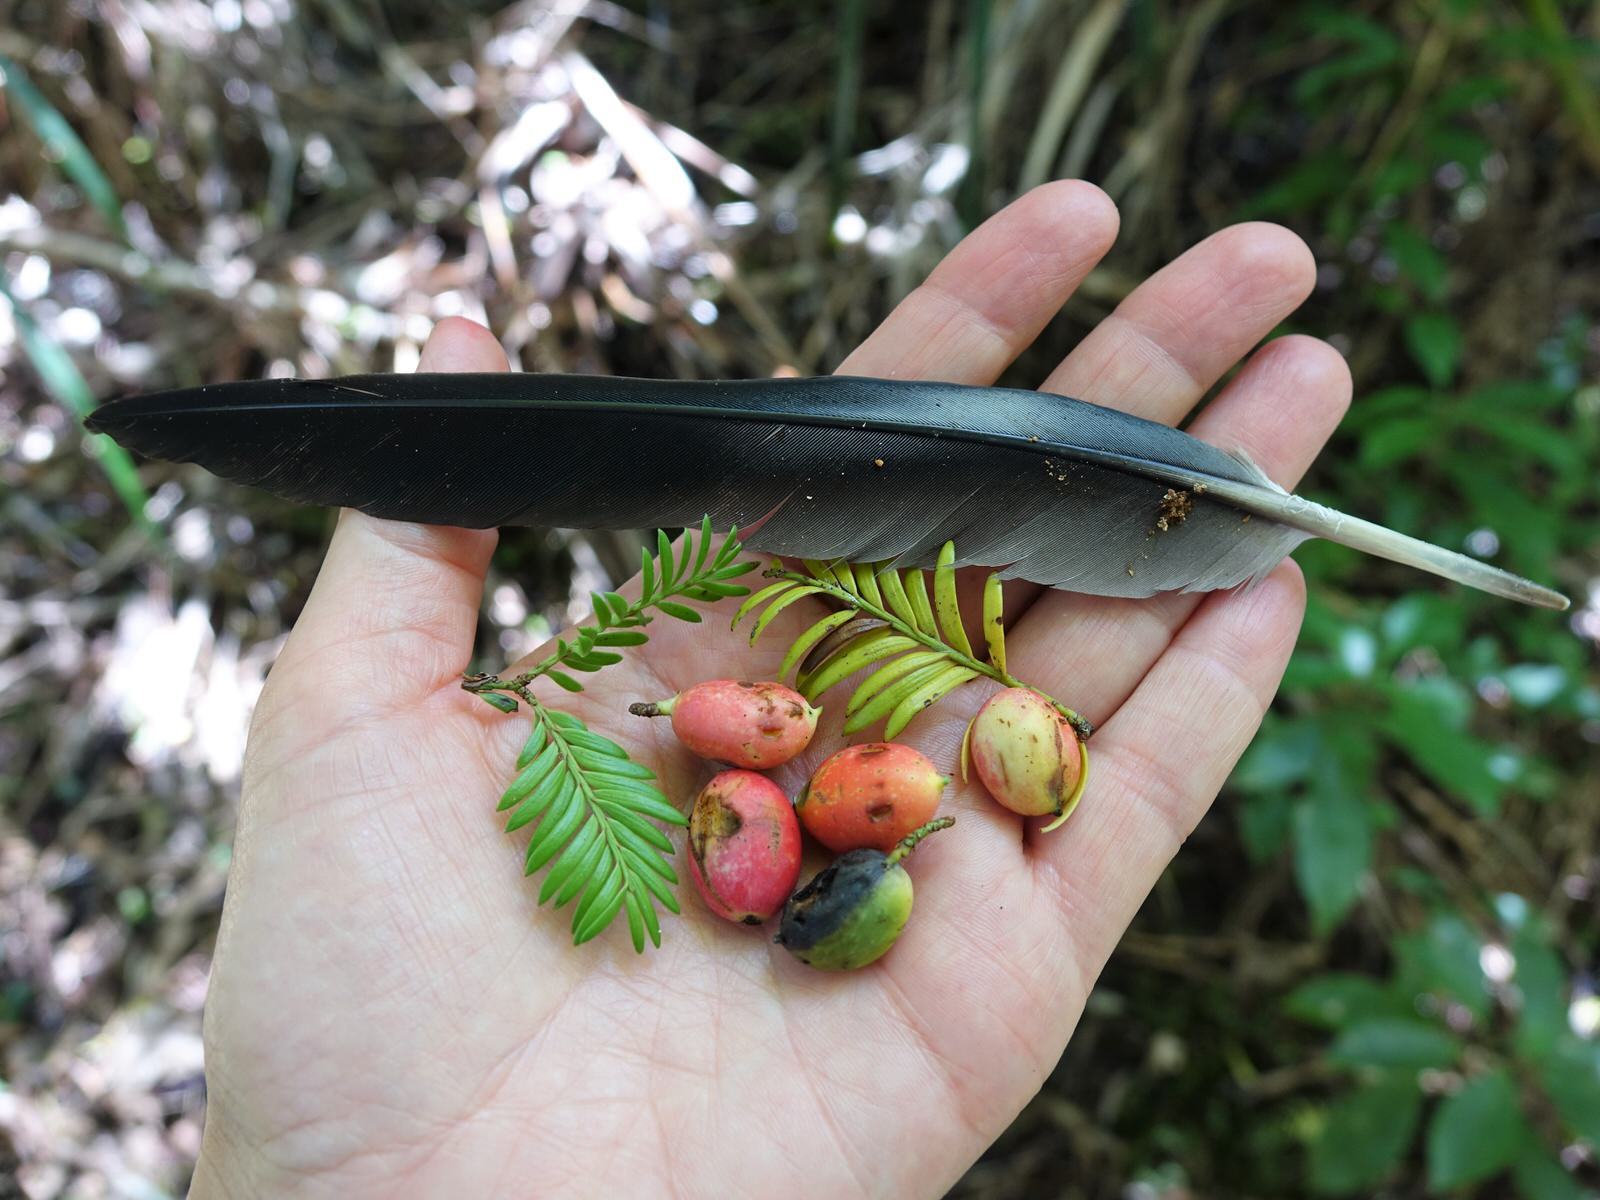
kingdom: Plantae
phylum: Tracheophyta
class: Pinopsida
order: Pinales
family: Podocarpaceae
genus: Prumnopitys
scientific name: Prumnopitys ferruginea
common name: Brown pine
